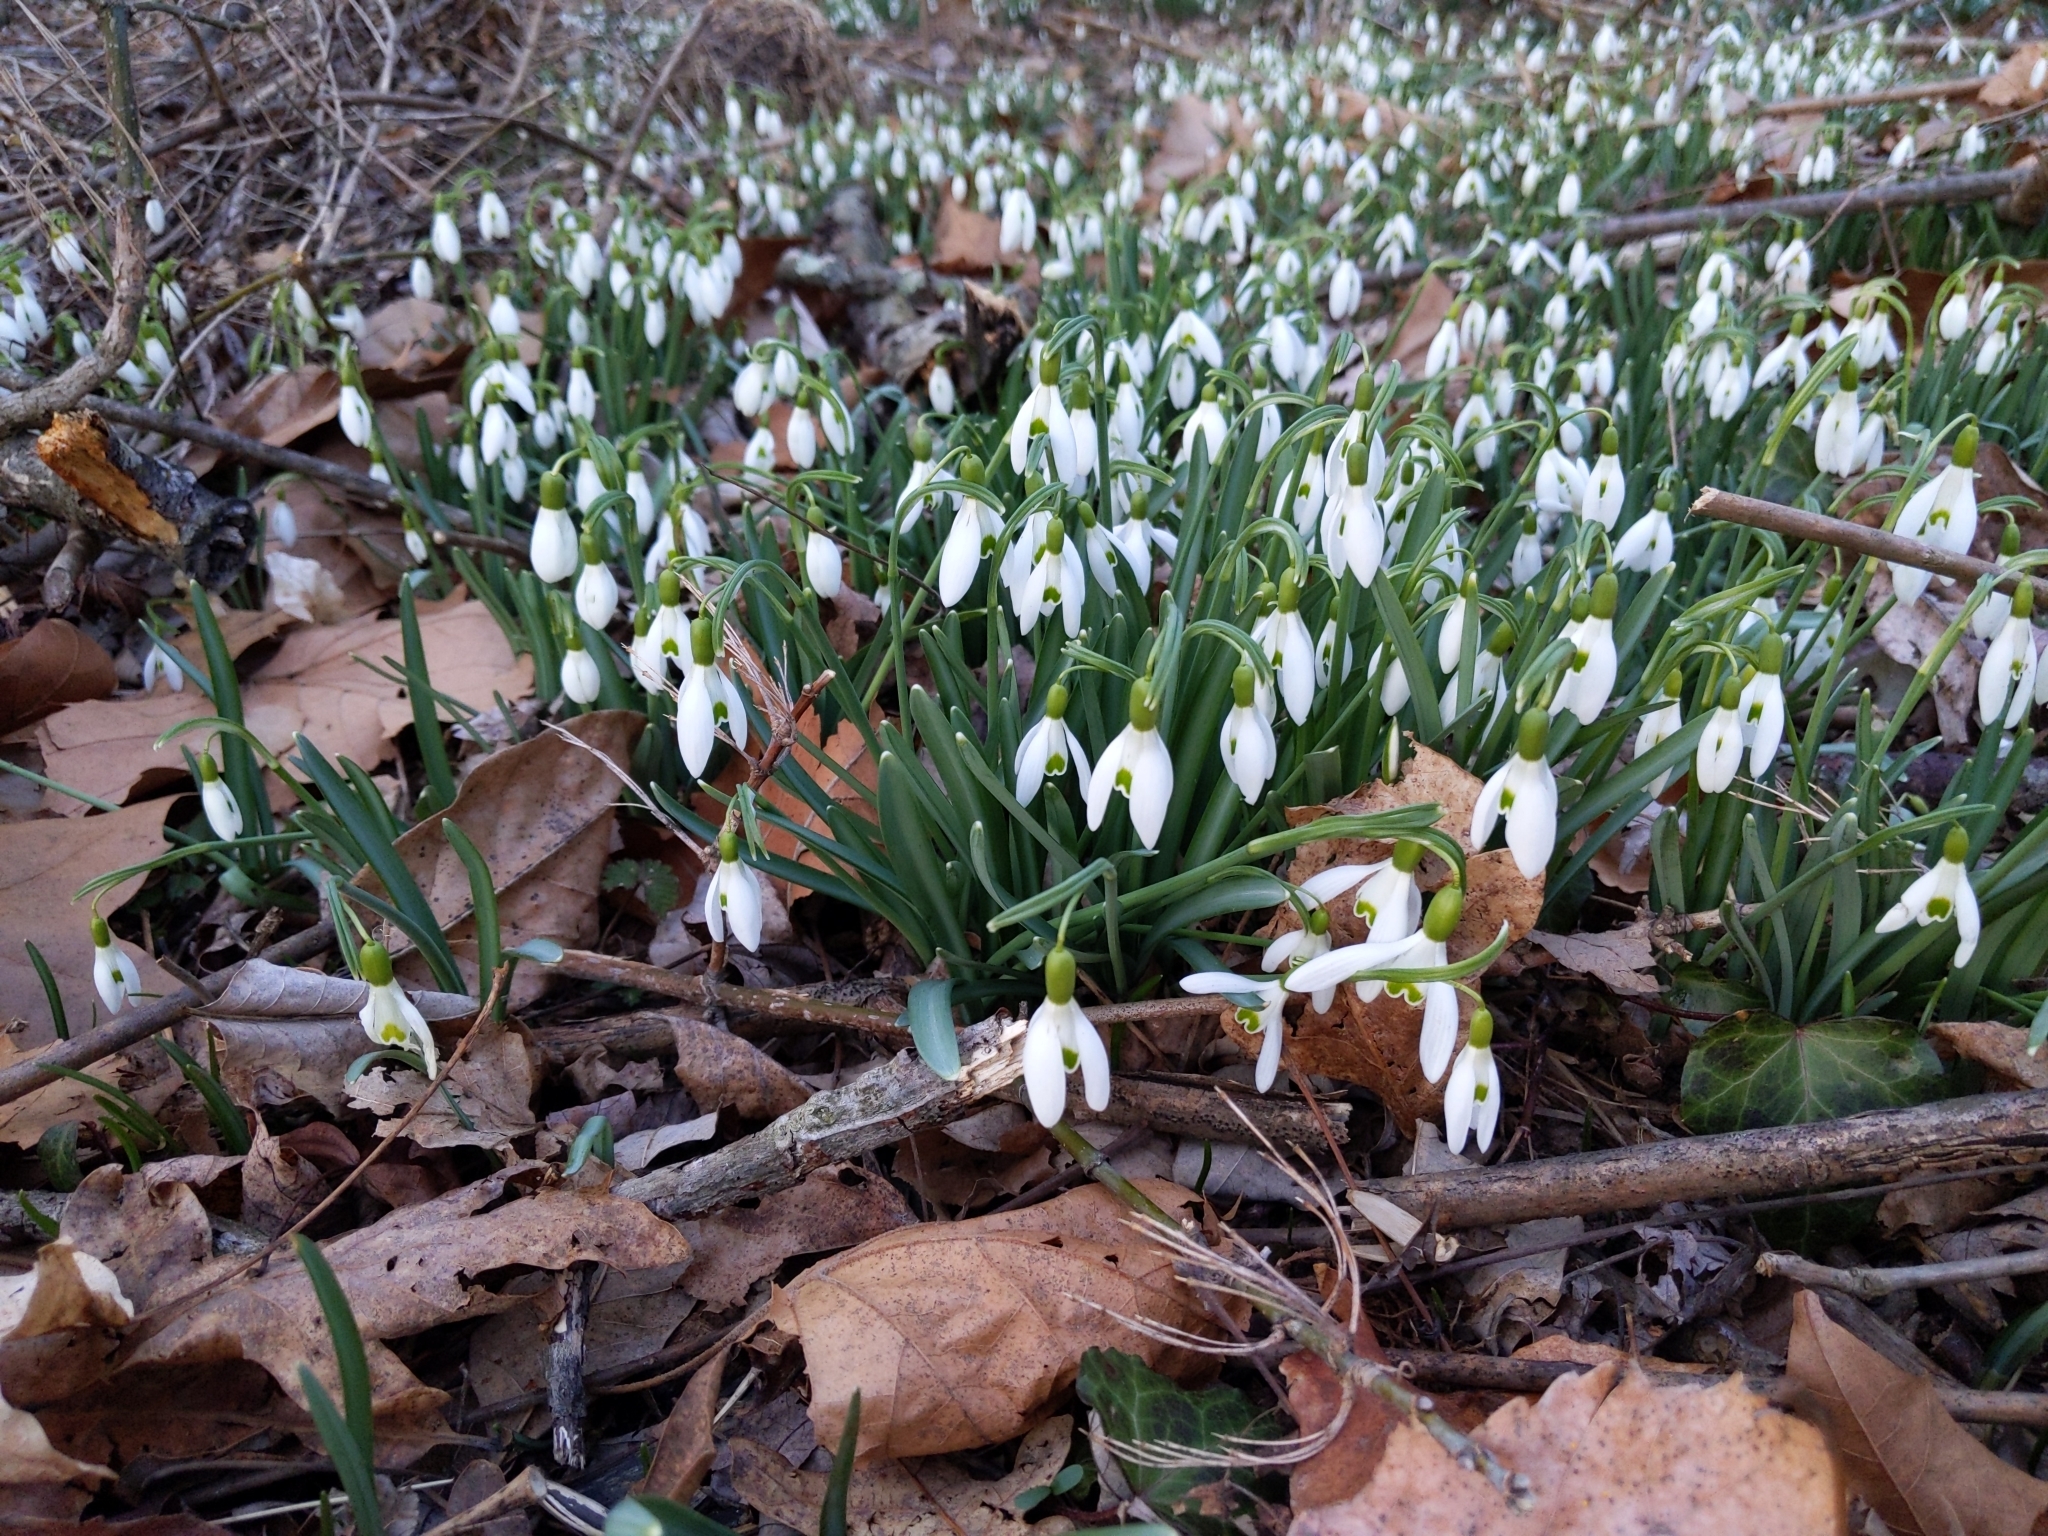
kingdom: Plantae
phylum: Tracheophyta
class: Liliopsida
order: Asparagales
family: Amaryllidaceae
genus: Galanthus
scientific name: Galanthus nivalis
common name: Snowdrop
